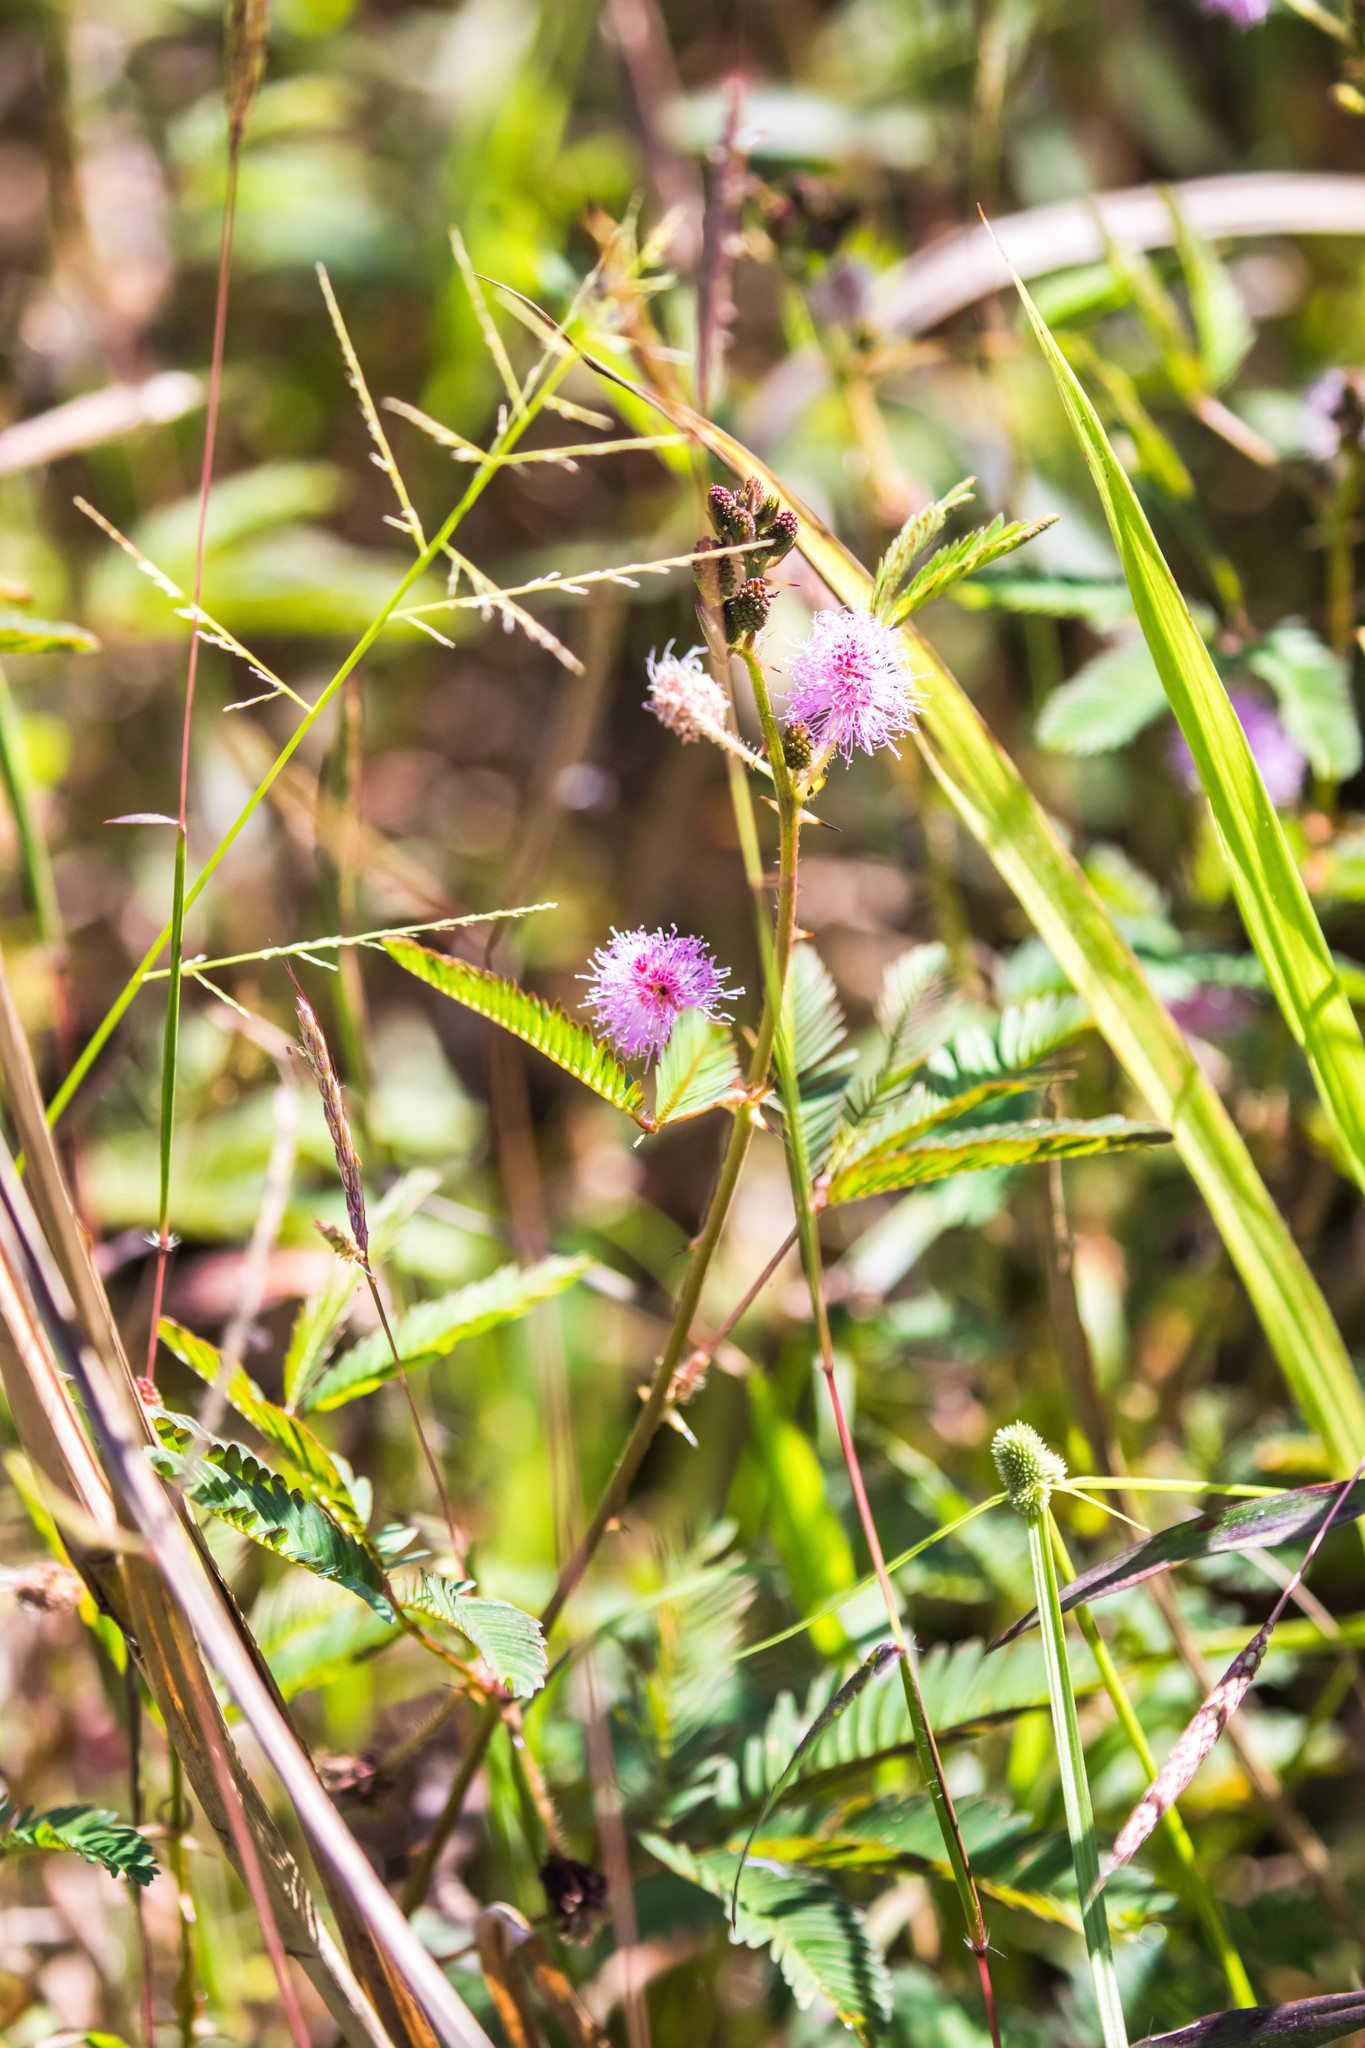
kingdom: Plantae
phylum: Tracheophyta
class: Magnoliopsida
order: Fabales
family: Fabaceae
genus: Mimosa
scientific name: Mimosa pudica
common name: Sensitive plant
